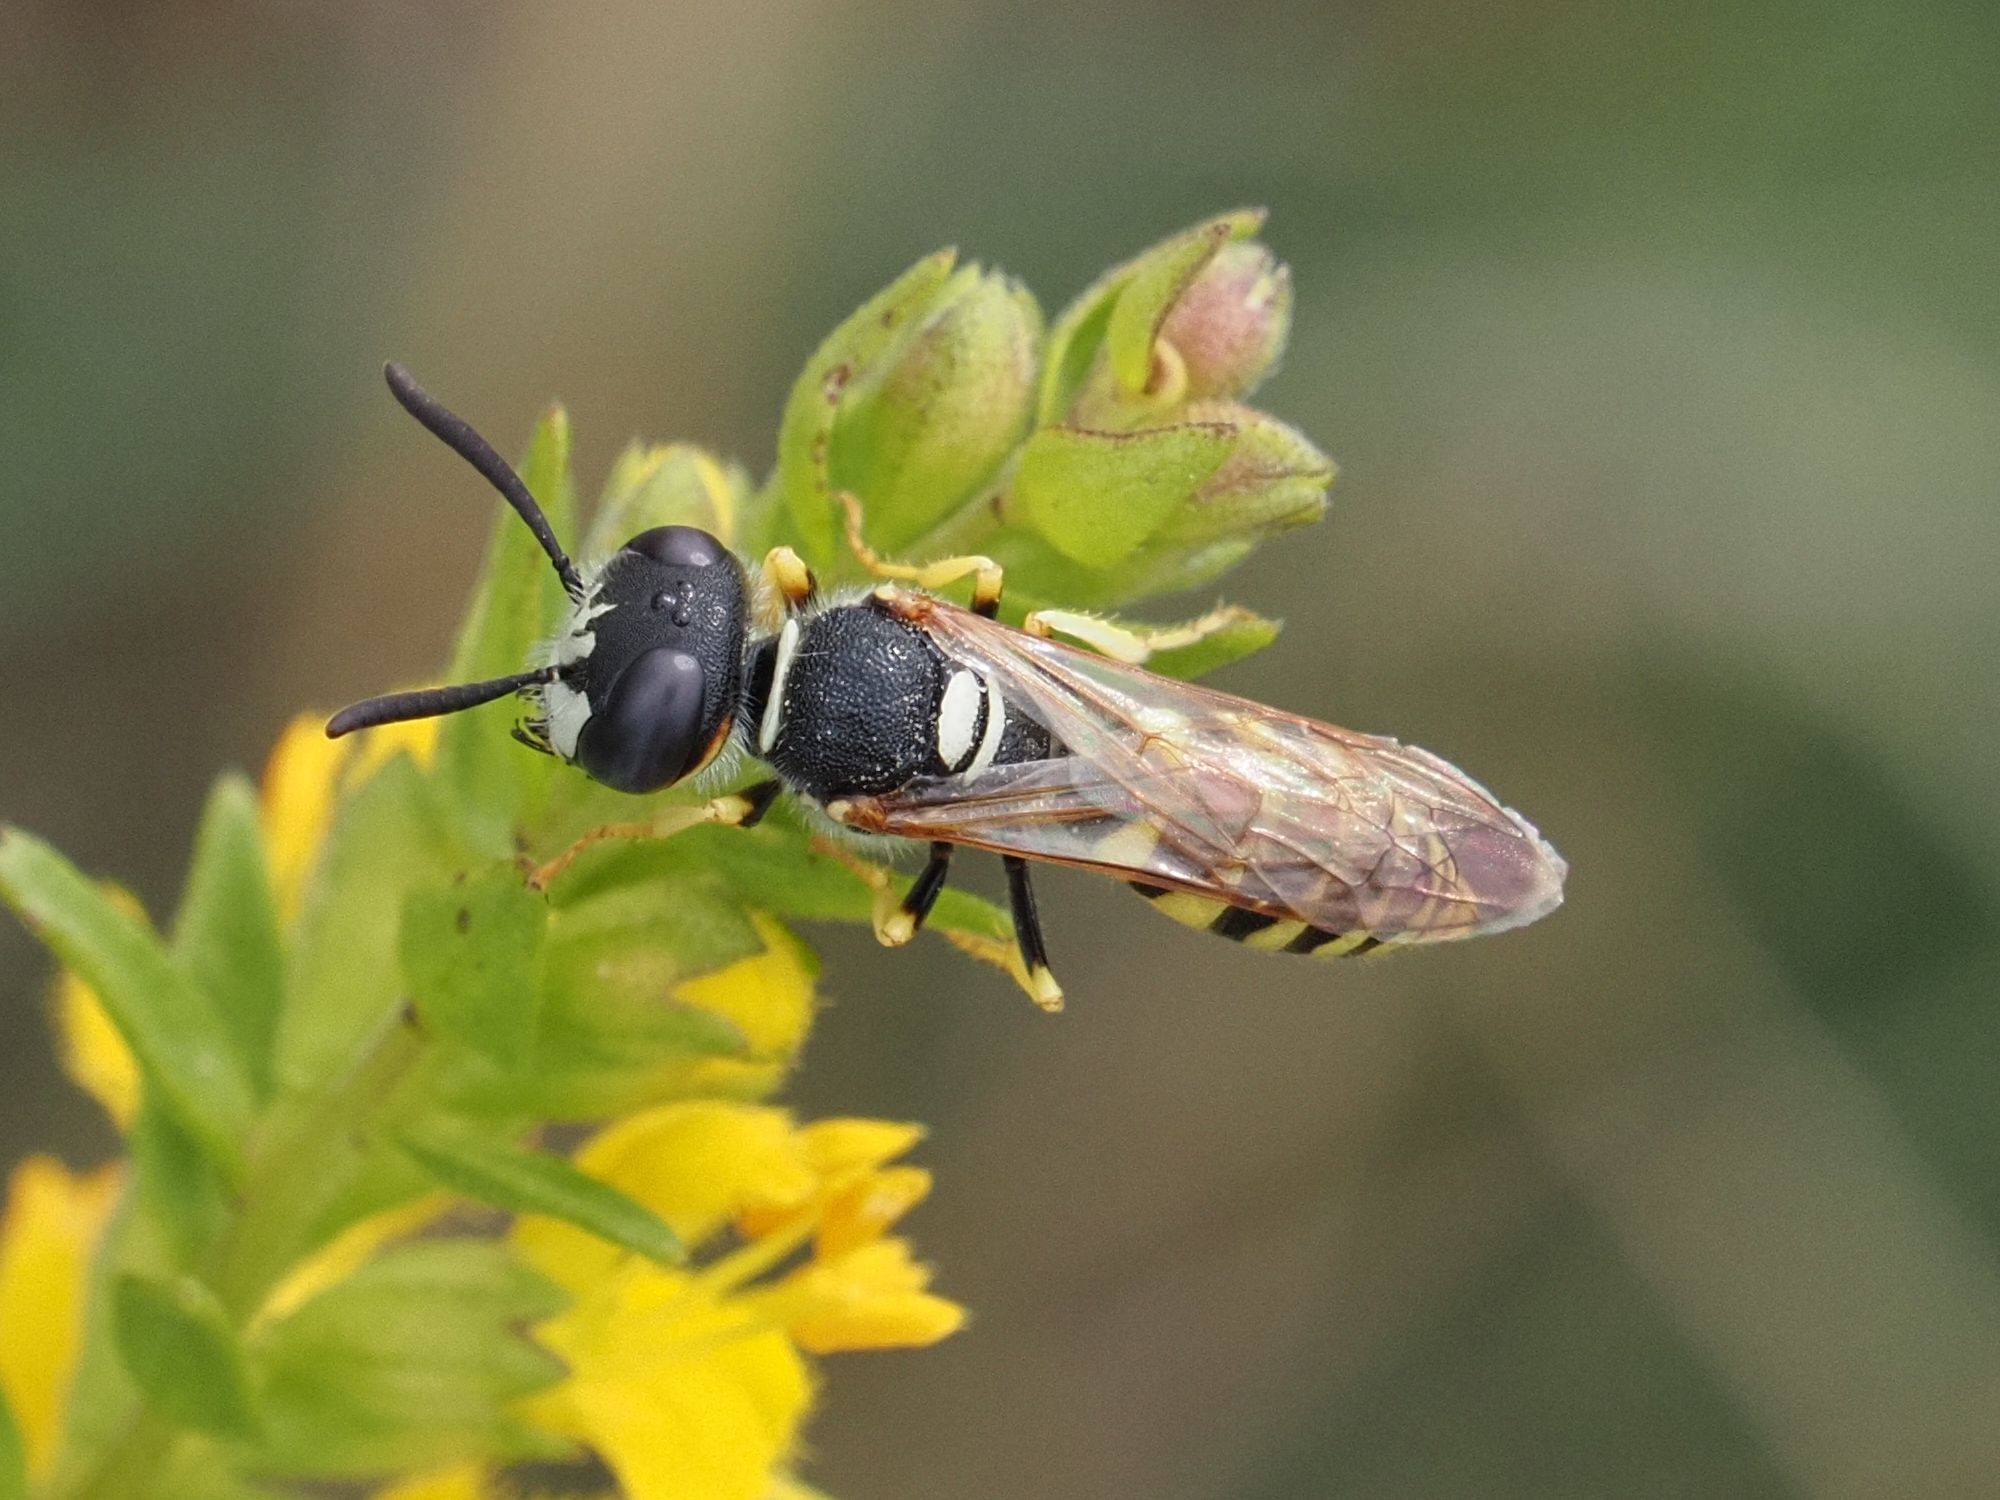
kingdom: Animalia
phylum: Arthropoda
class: Insecta
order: Hymenoptera
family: Crabronidae
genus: Philanthus
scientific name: Philanthus triangulum
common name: Bee wolf
